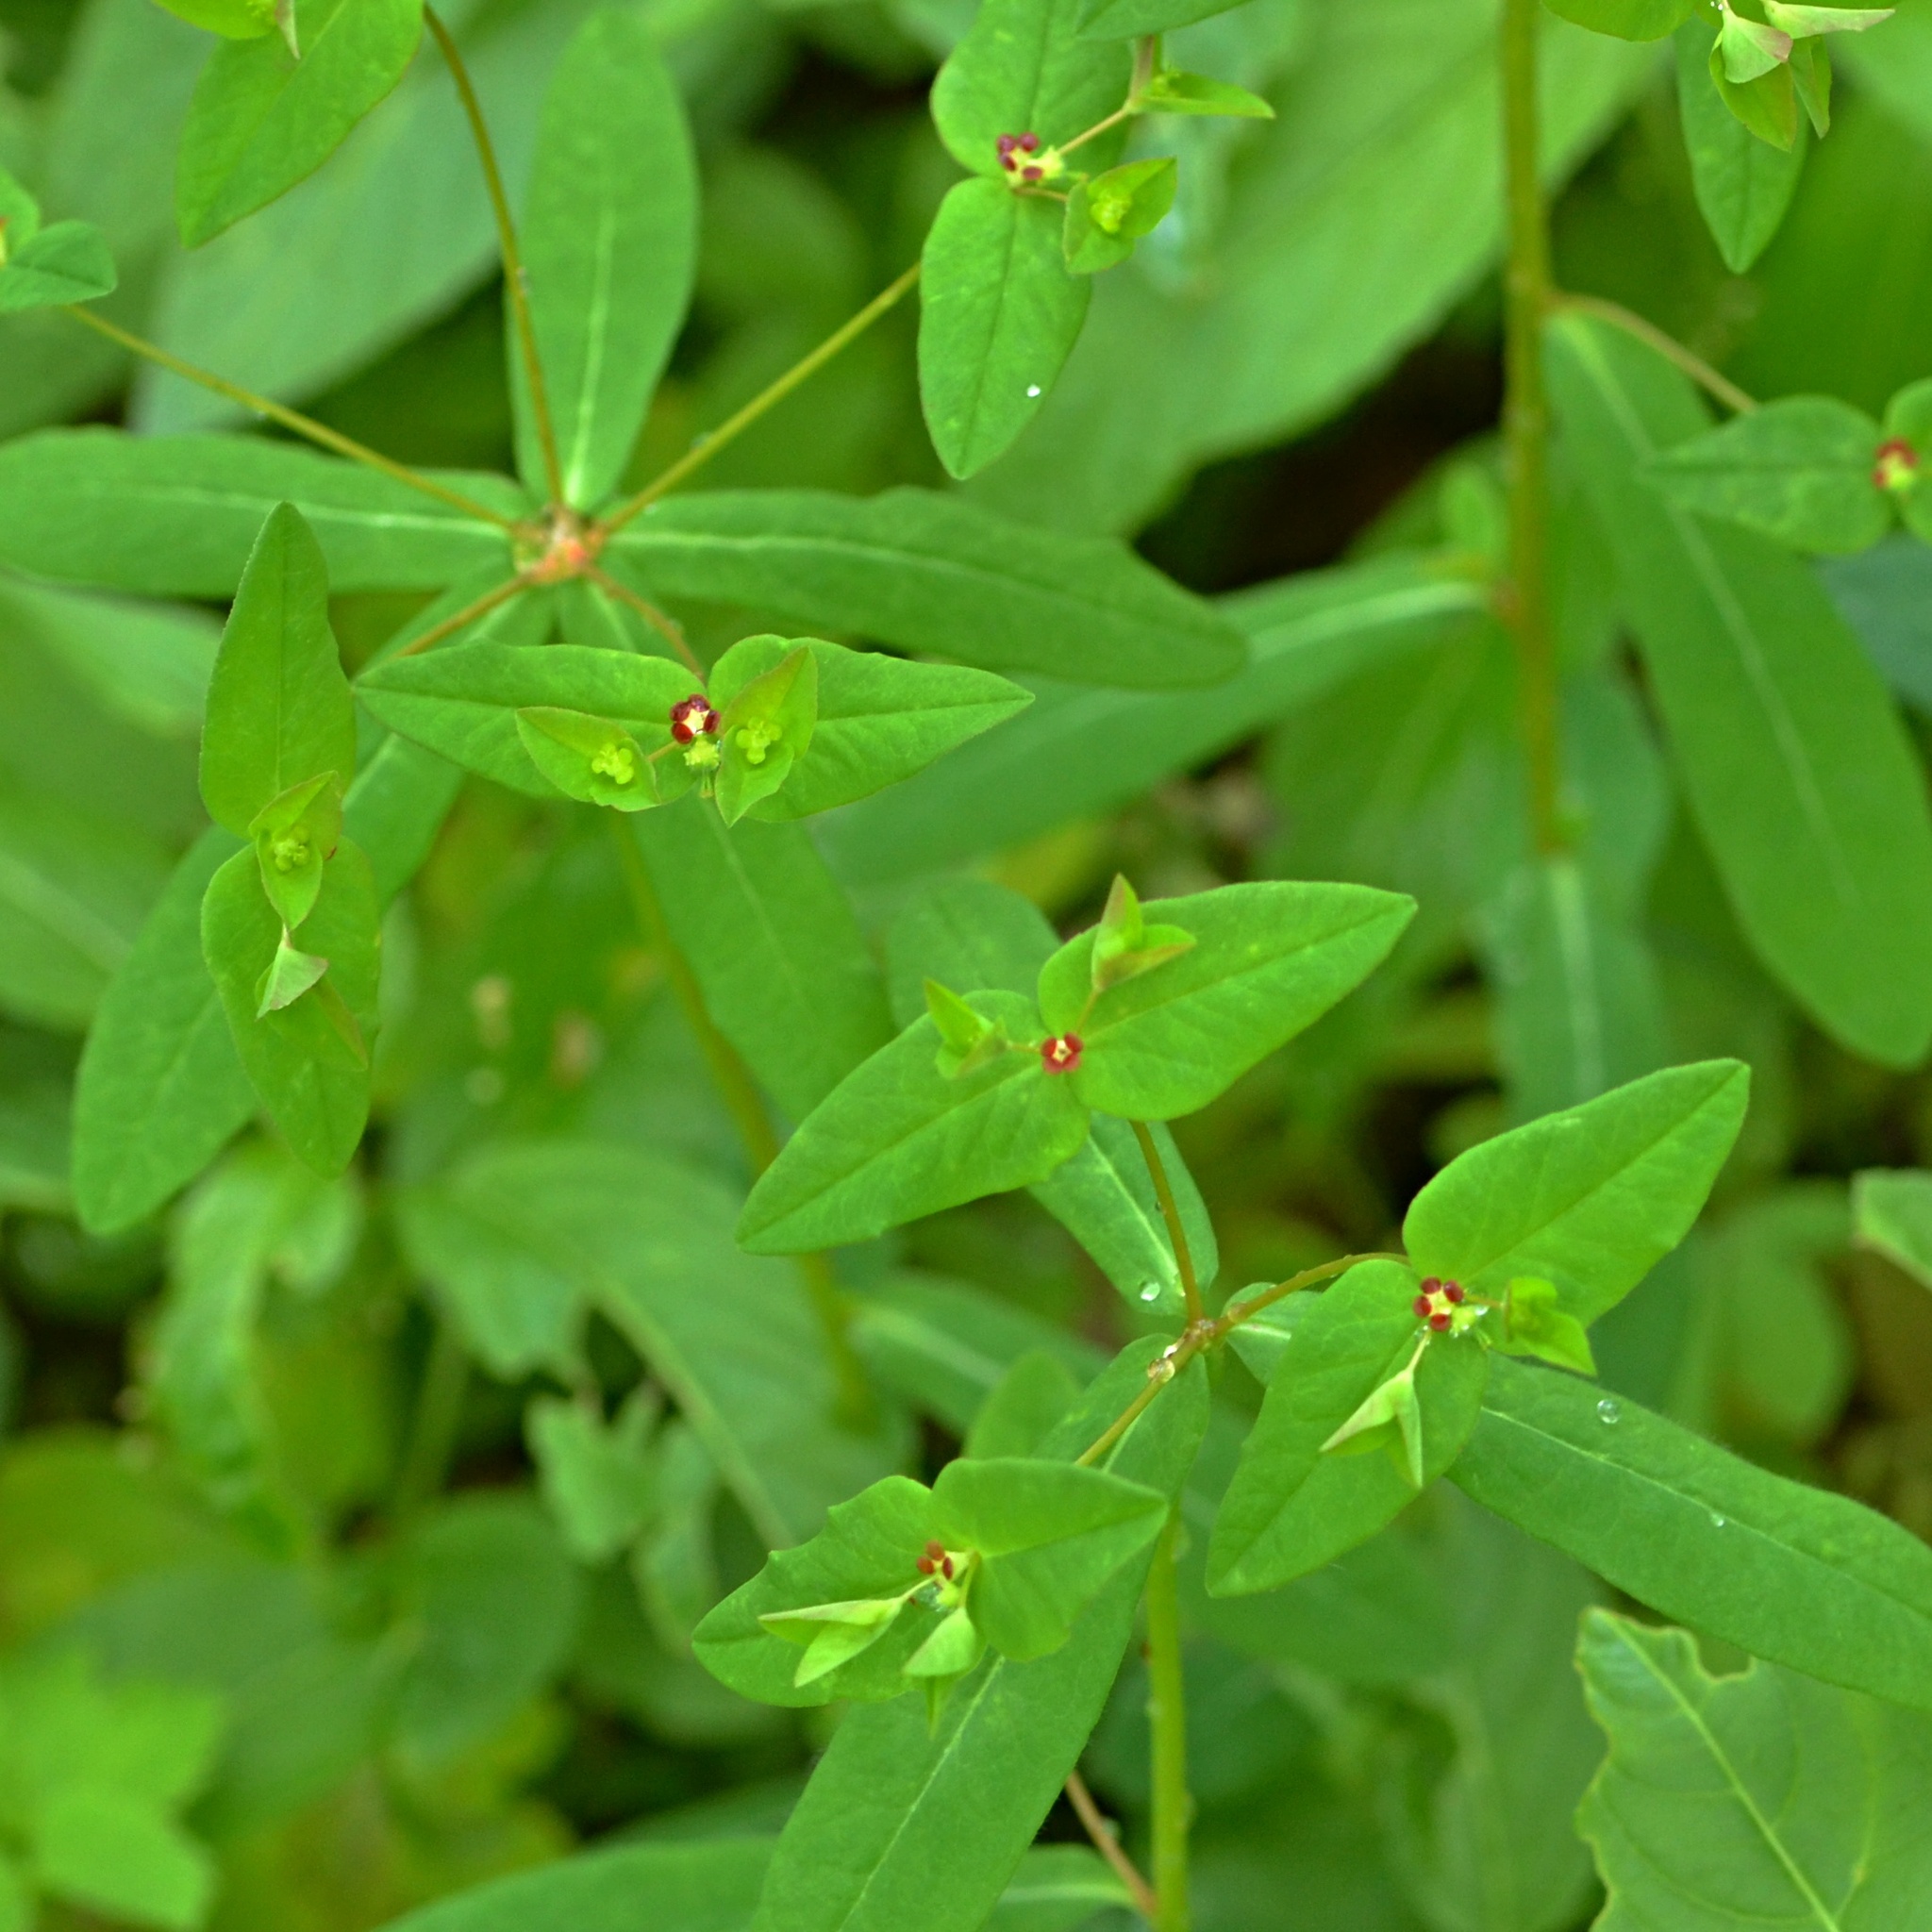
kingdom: Plantae
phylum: Tracheophyta
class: Magnoliopsida
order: Malpighiales
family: Euphorbiaceae
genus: Euphorbia
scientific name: Euphorbia dulcis
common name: Sweet spurge
